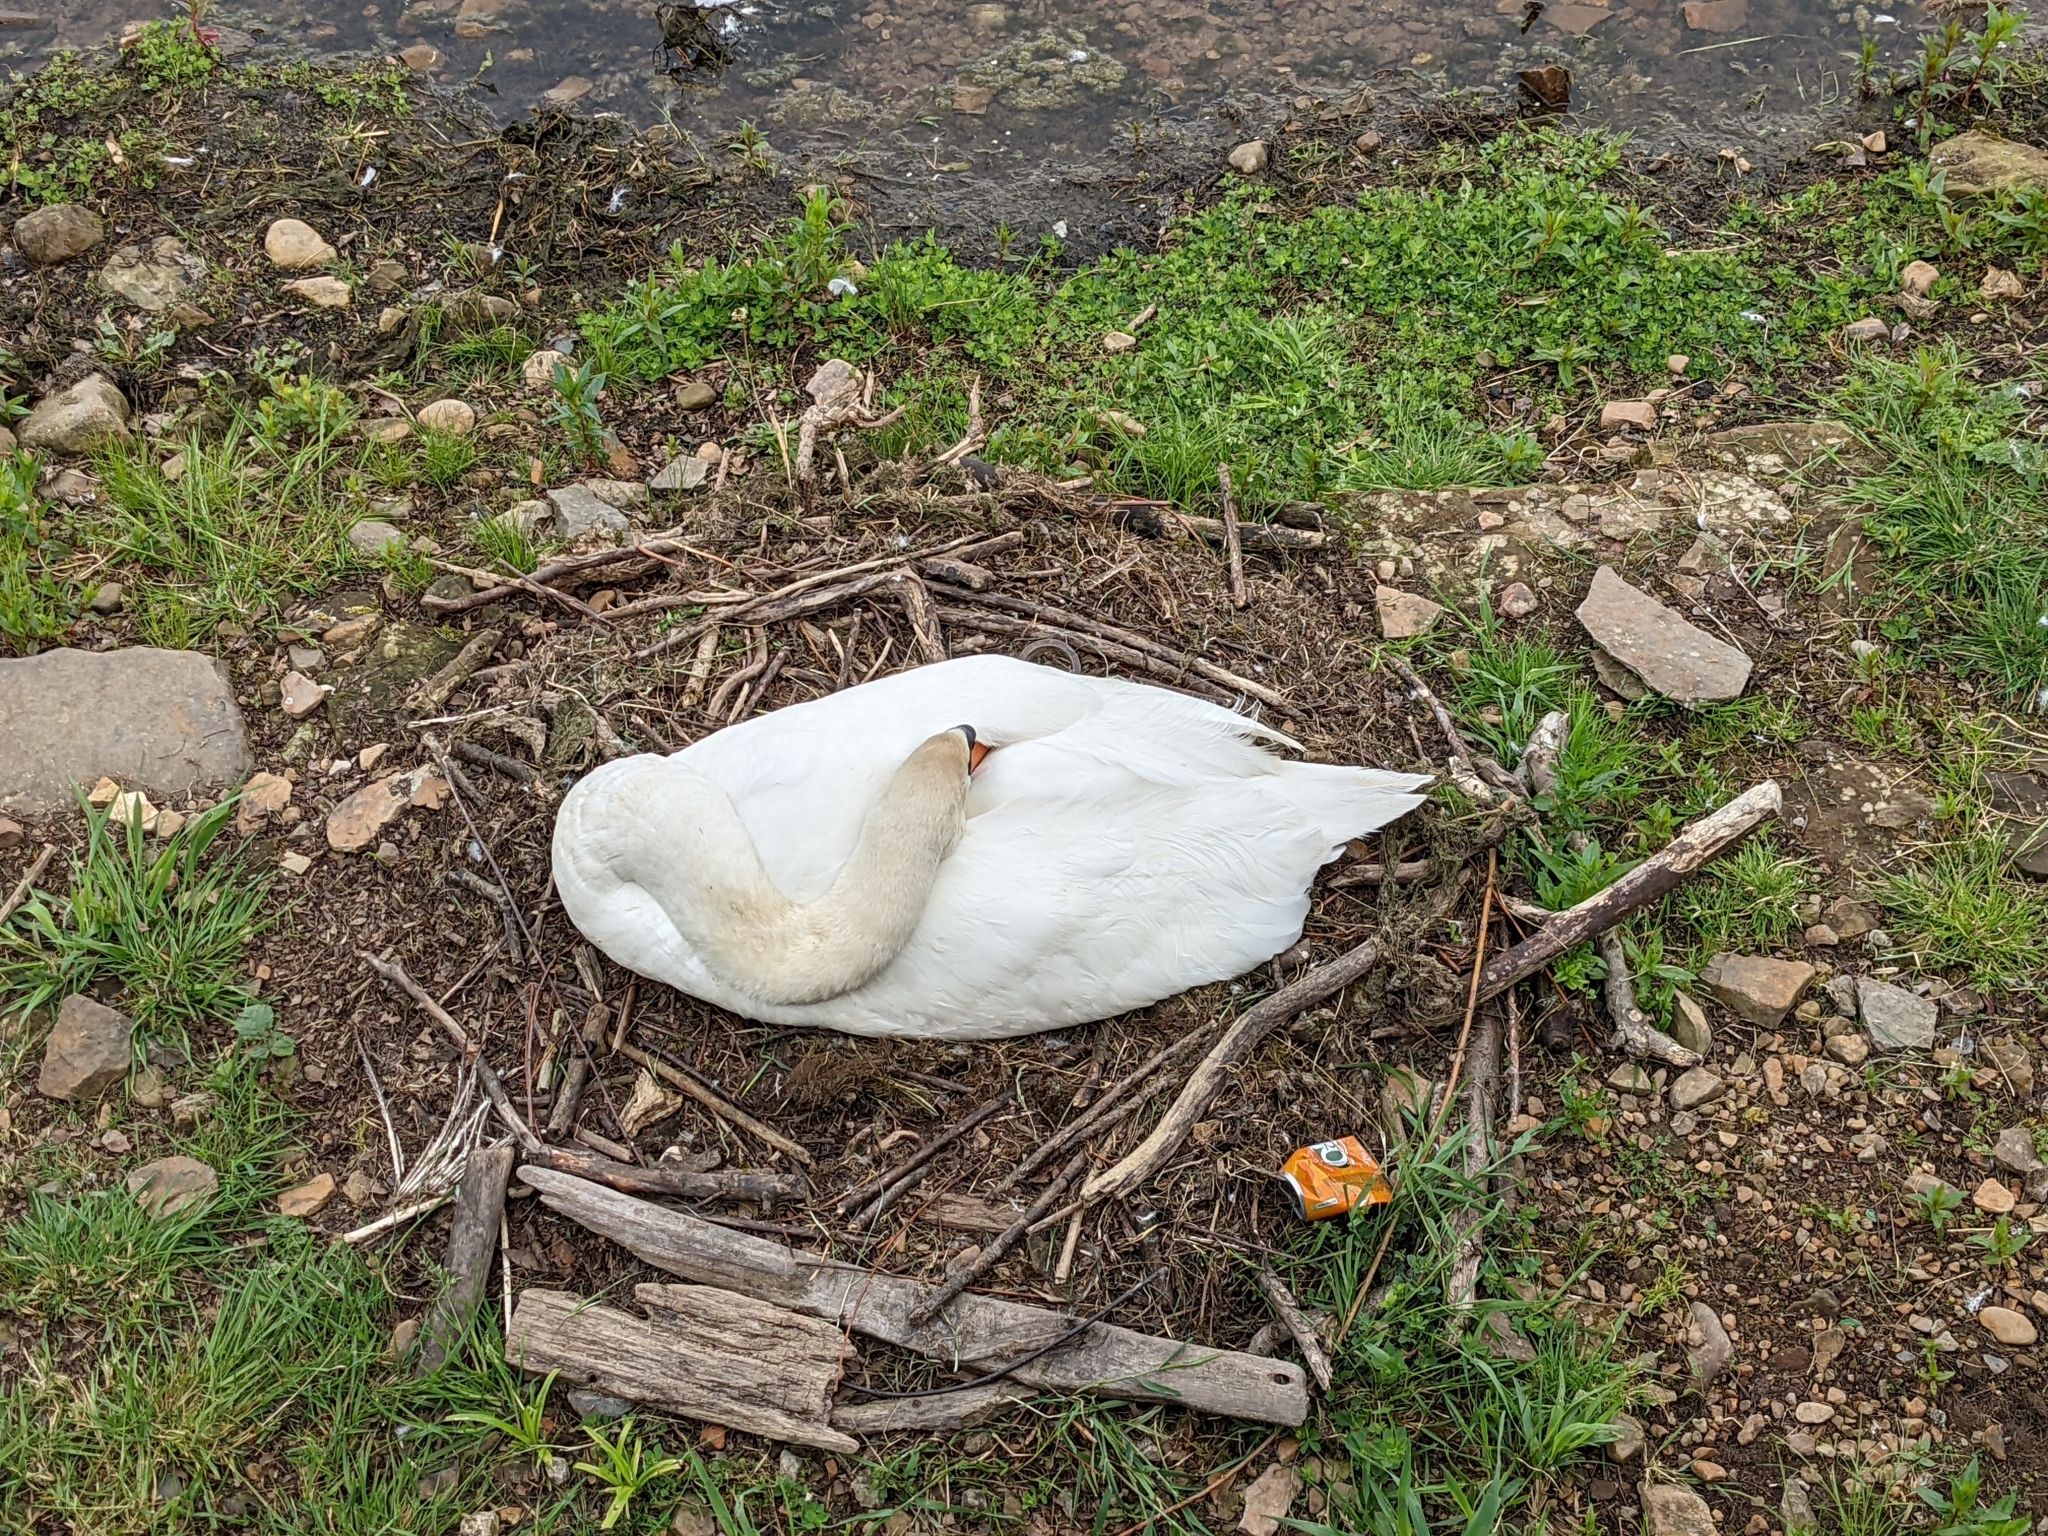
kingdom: Animalia
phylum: Chordata
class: Aves
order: Anseriformes
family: Anatidae
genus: Cygnus
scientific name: Cygnus olor
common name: Mute swan
